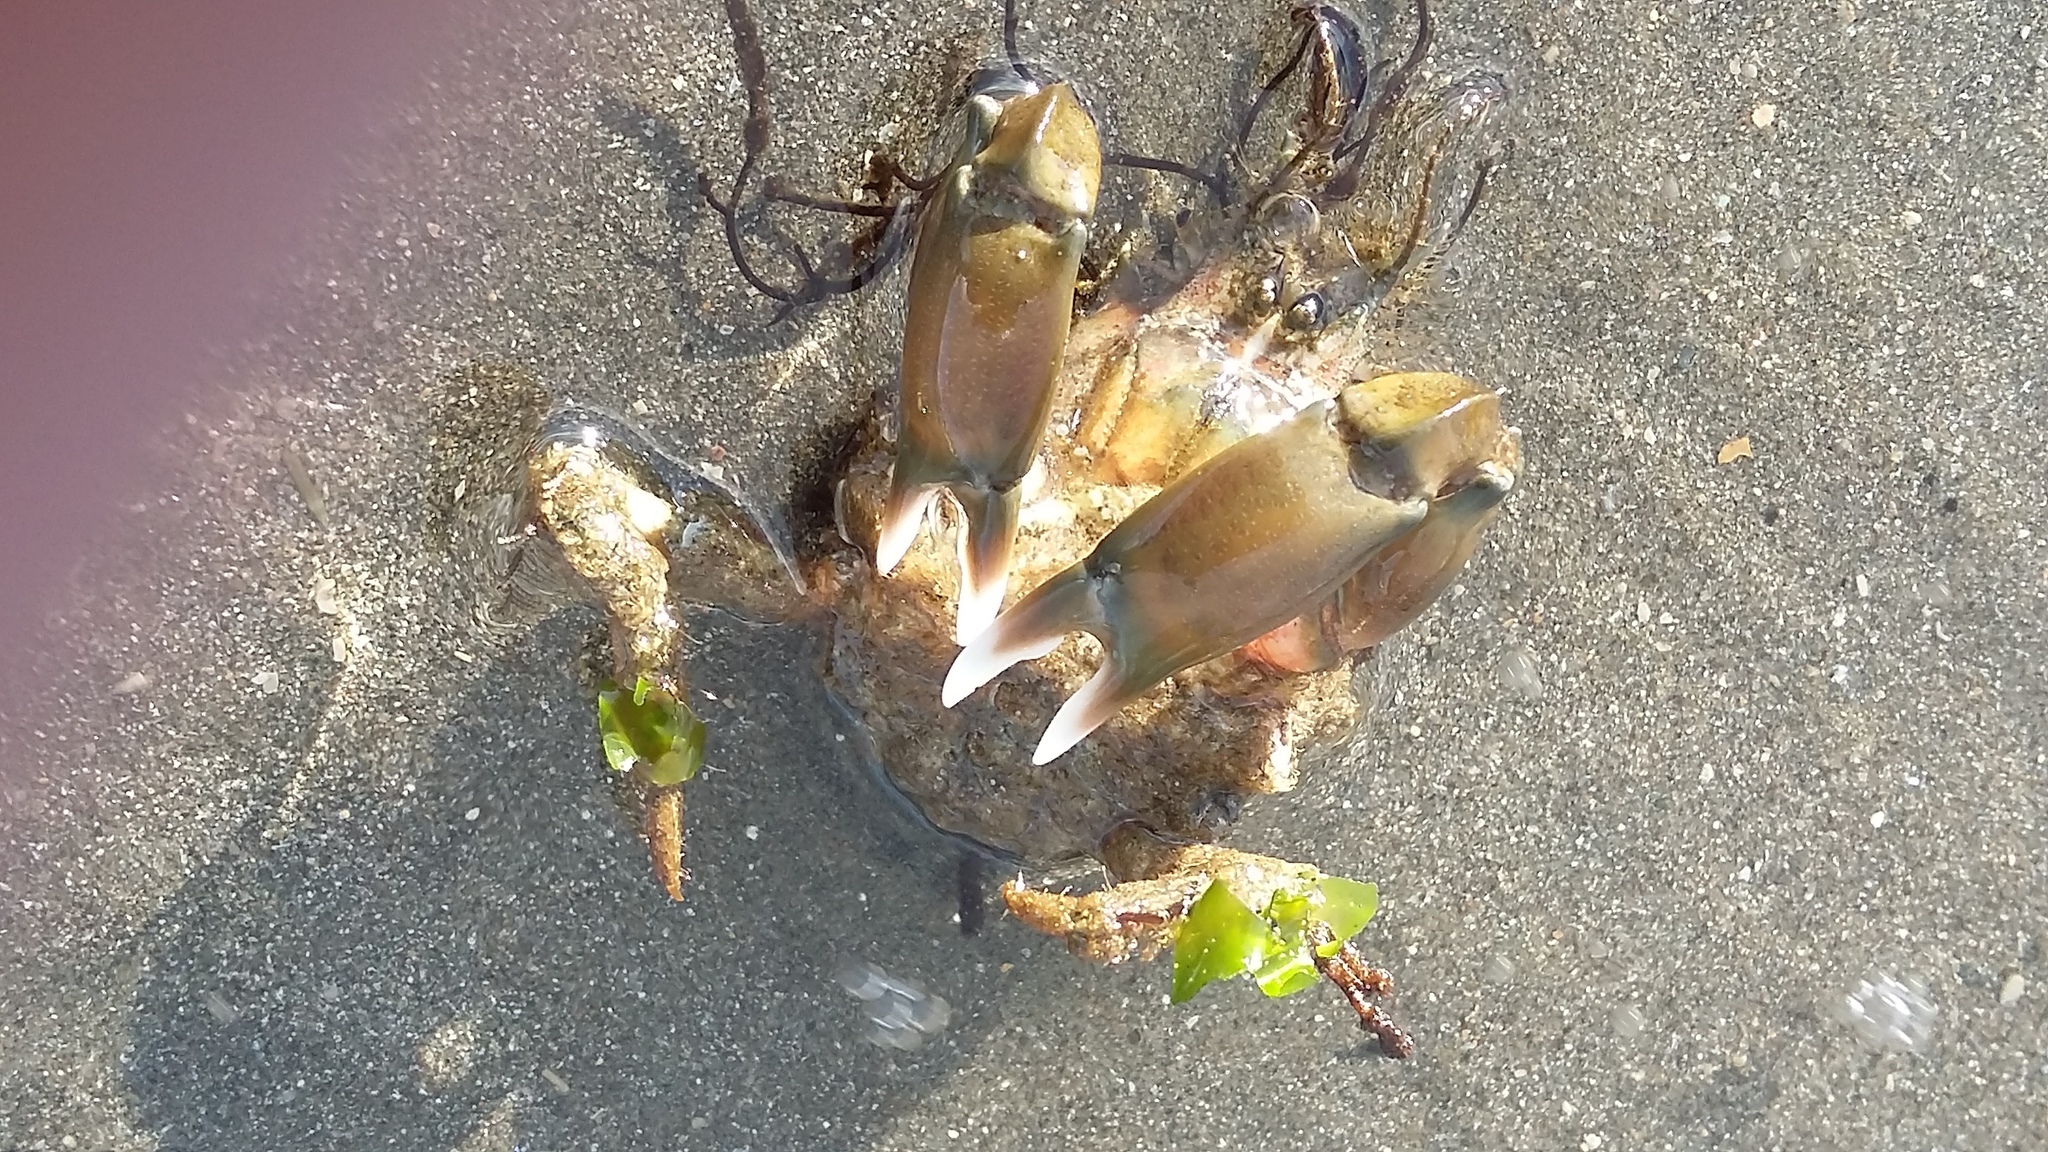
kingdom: Animalia
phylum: Arthropoda
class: Malacostraca
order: Decapoda
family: Majidae
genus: Notomithrax
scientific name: Notomithrax peronii
